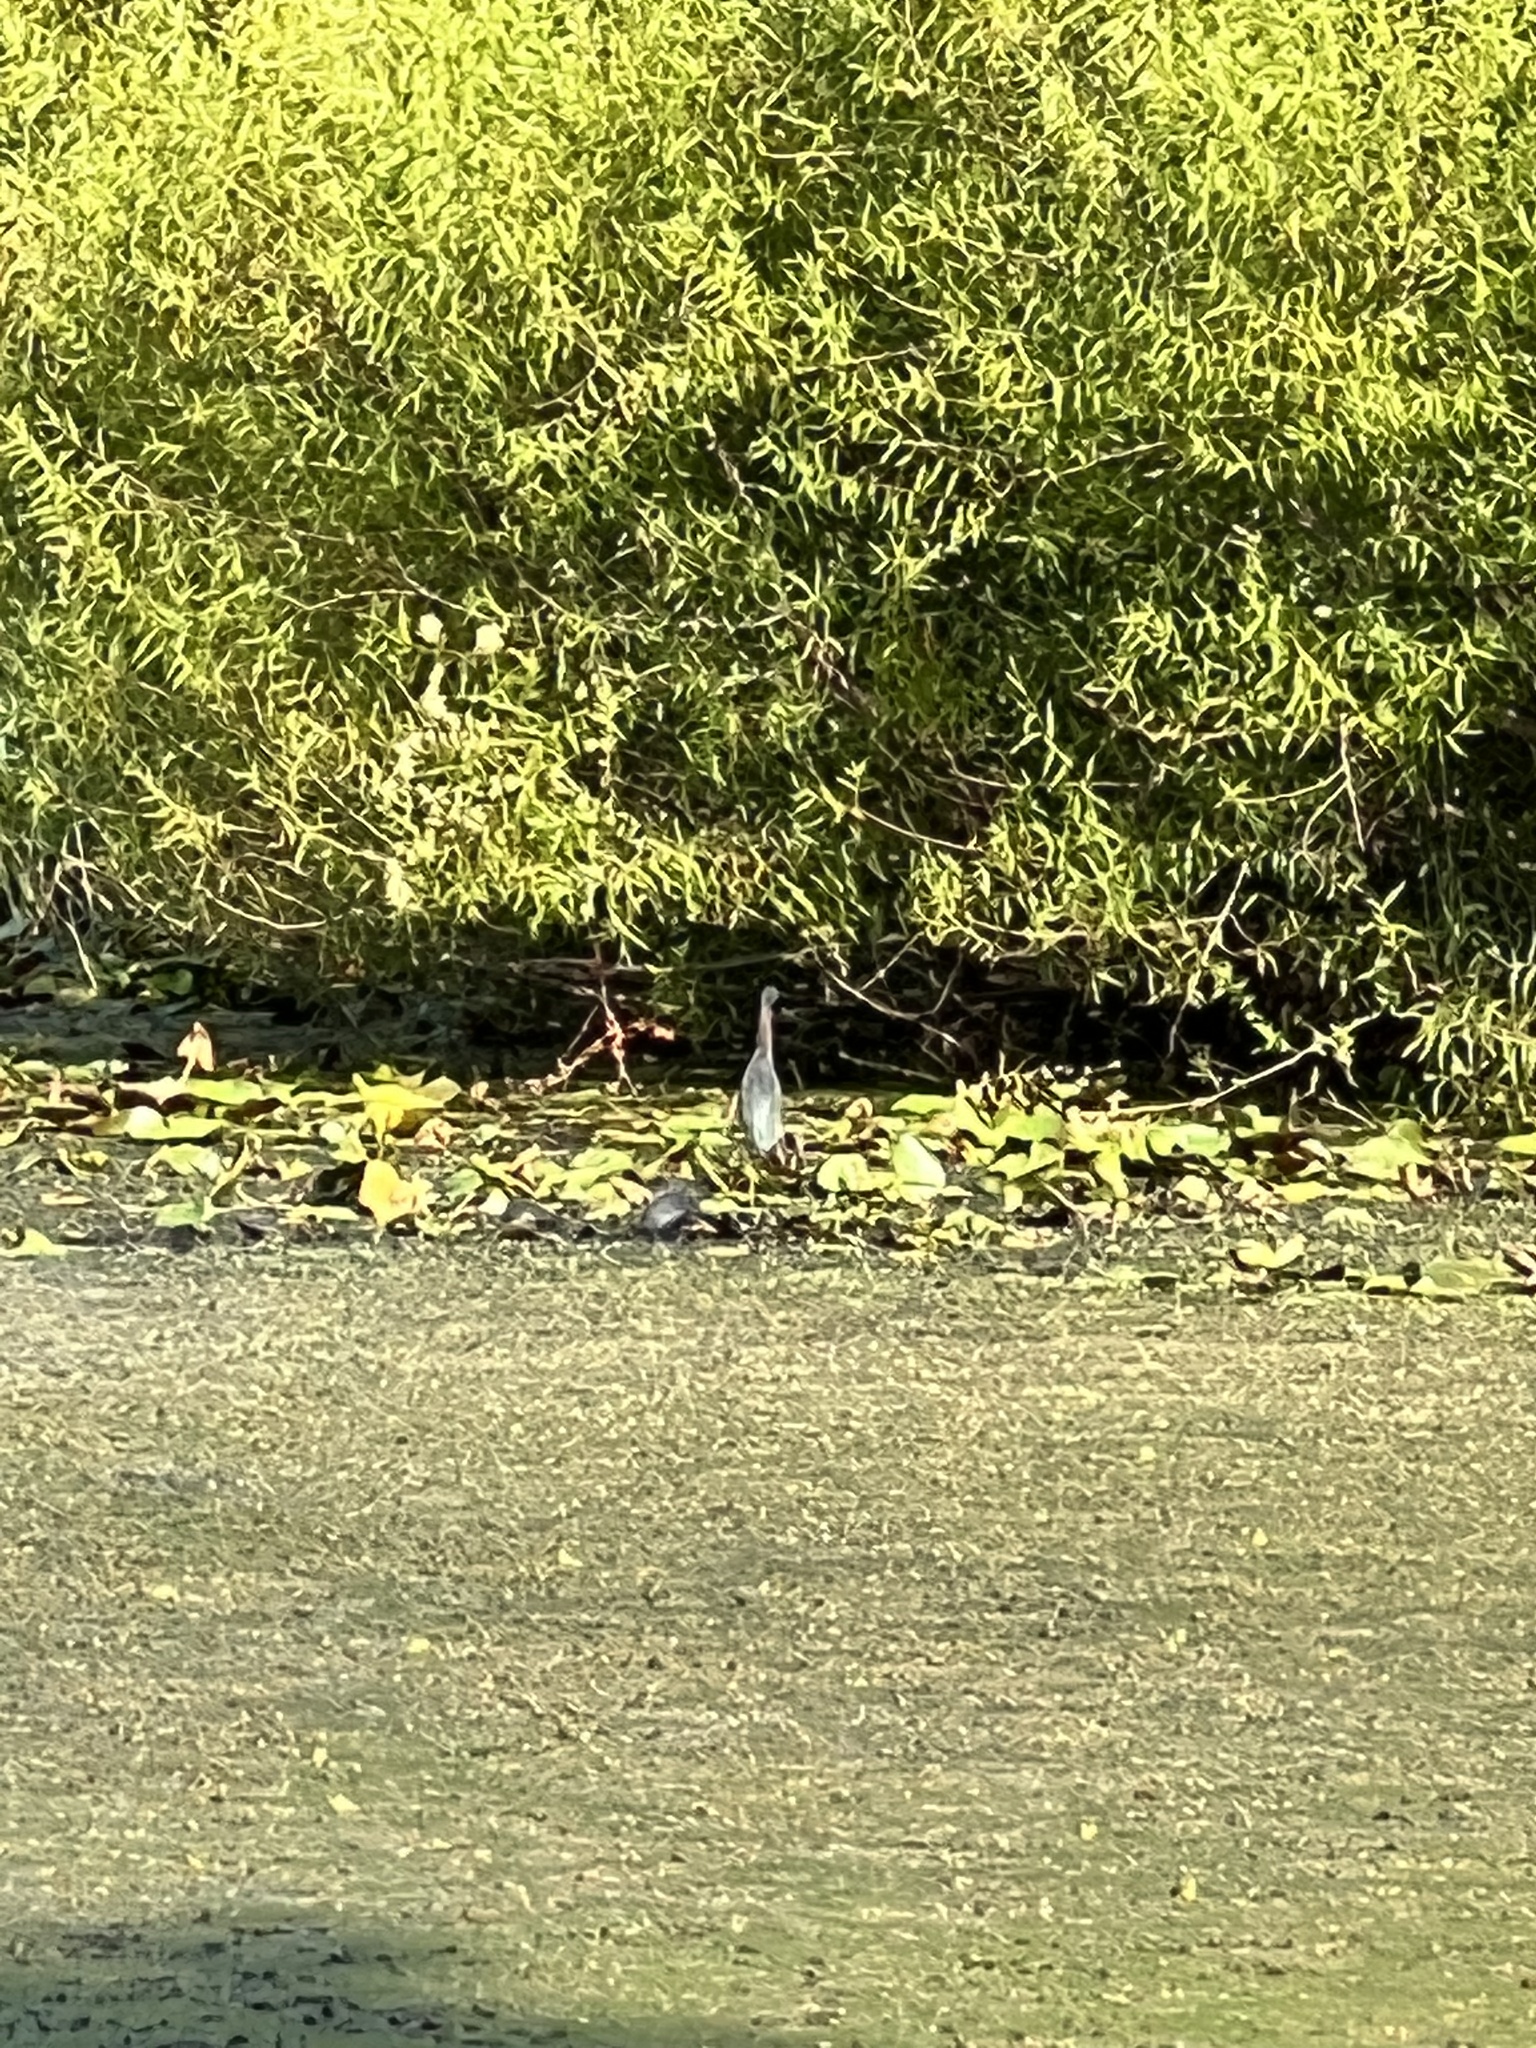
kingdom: Animalia
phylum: Chordata
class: Aves
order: Pelecaniformes
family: Ardeidae
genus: Butorides
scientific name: Butorides virescens
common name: Green heron
